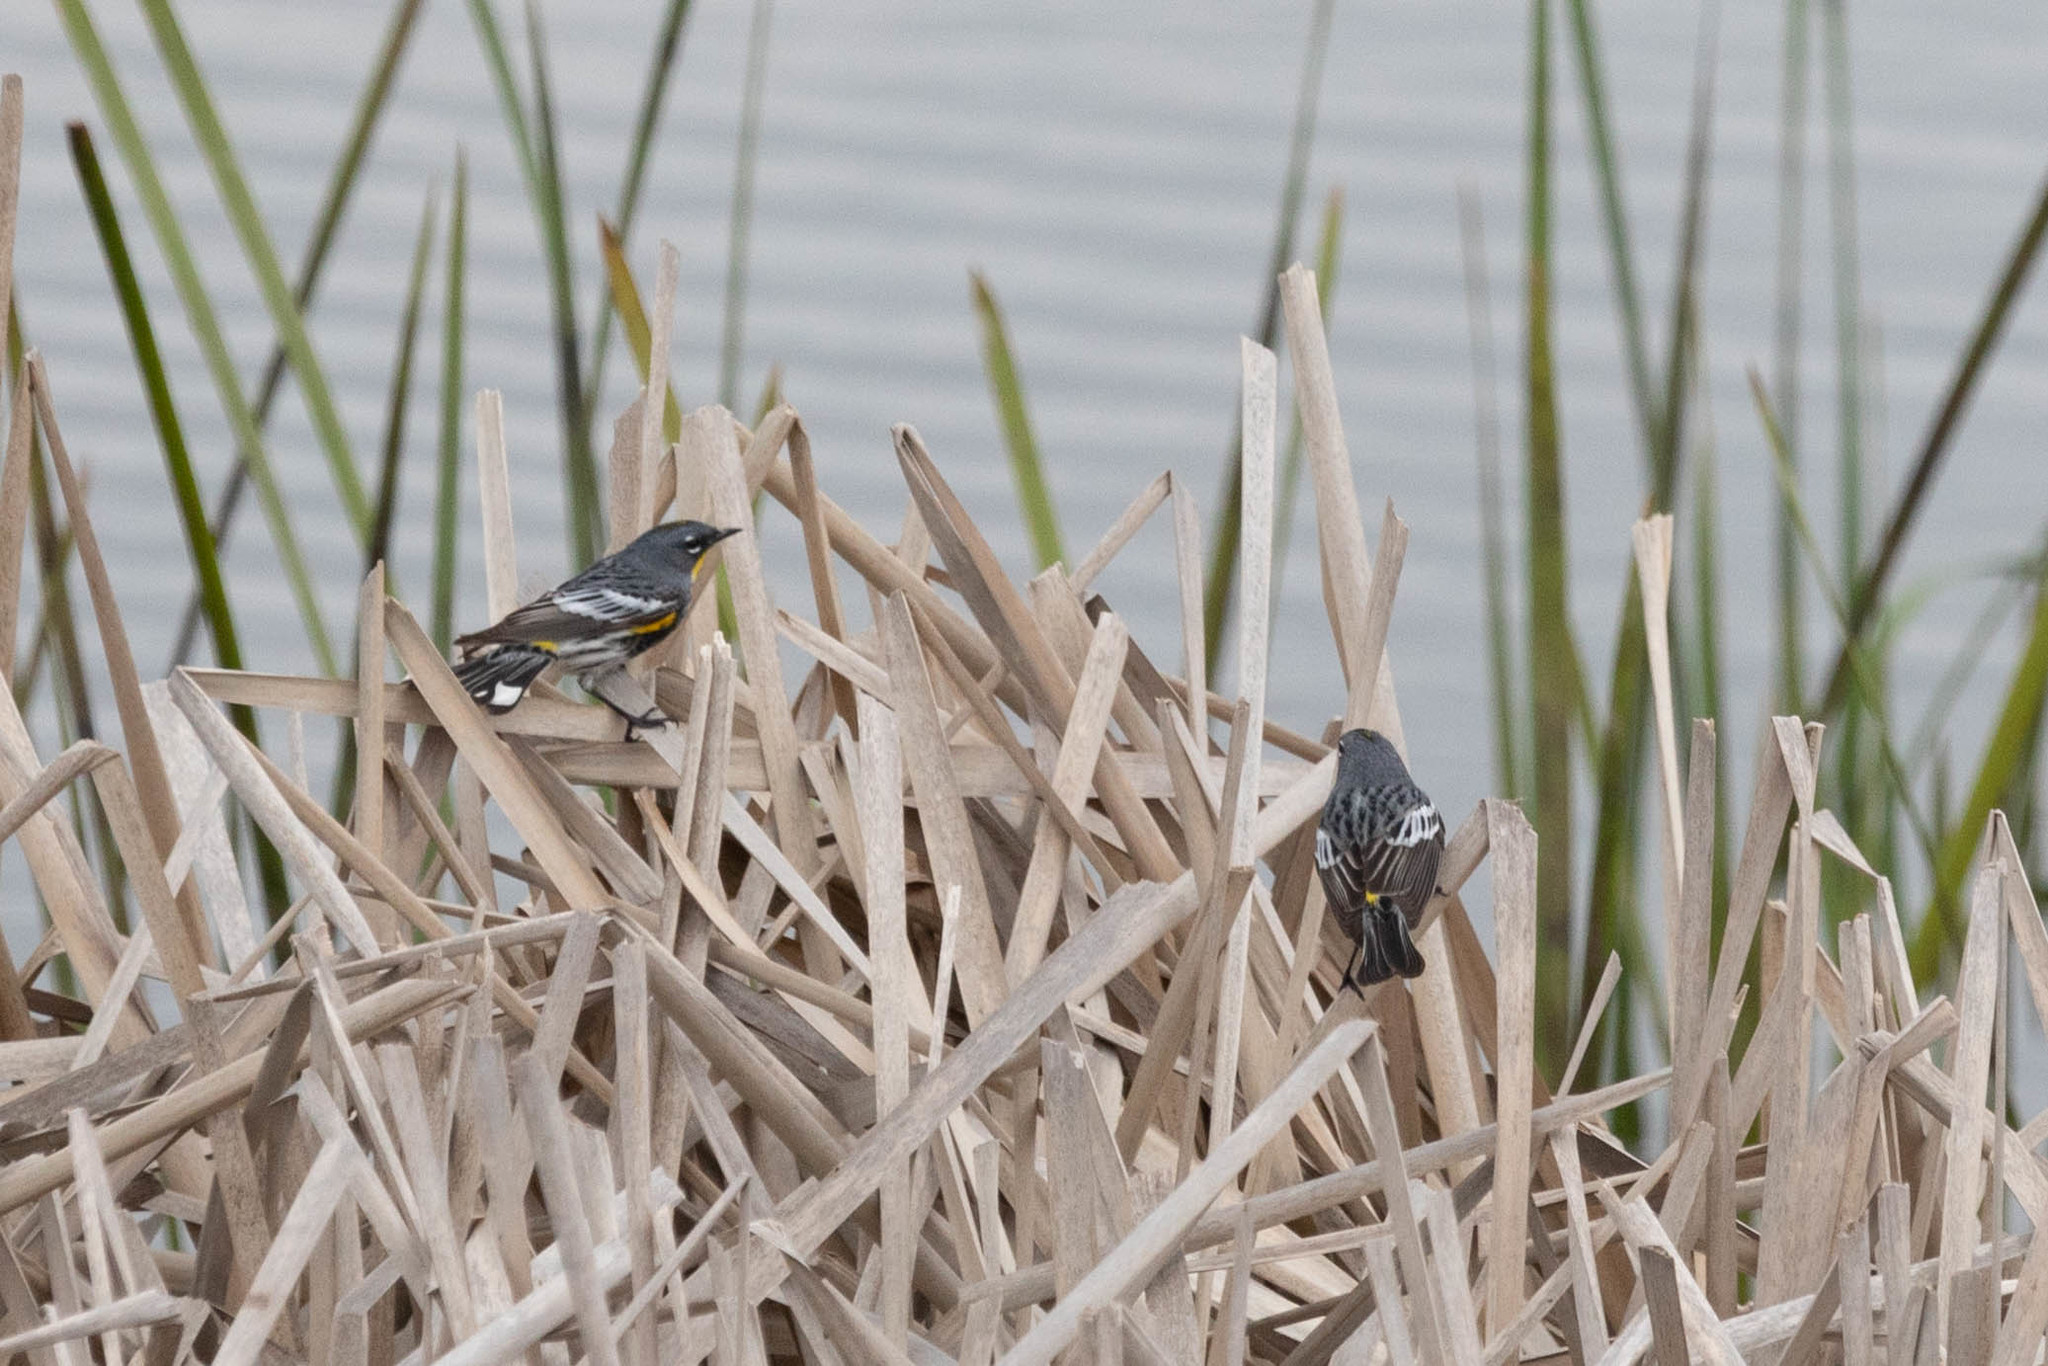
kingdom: Animalia
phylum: Chordata
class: Aves
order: Passeriformes
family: Parulidae
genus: Setophaga
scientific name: Setophaga auduboni
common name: Audubon's warbler
